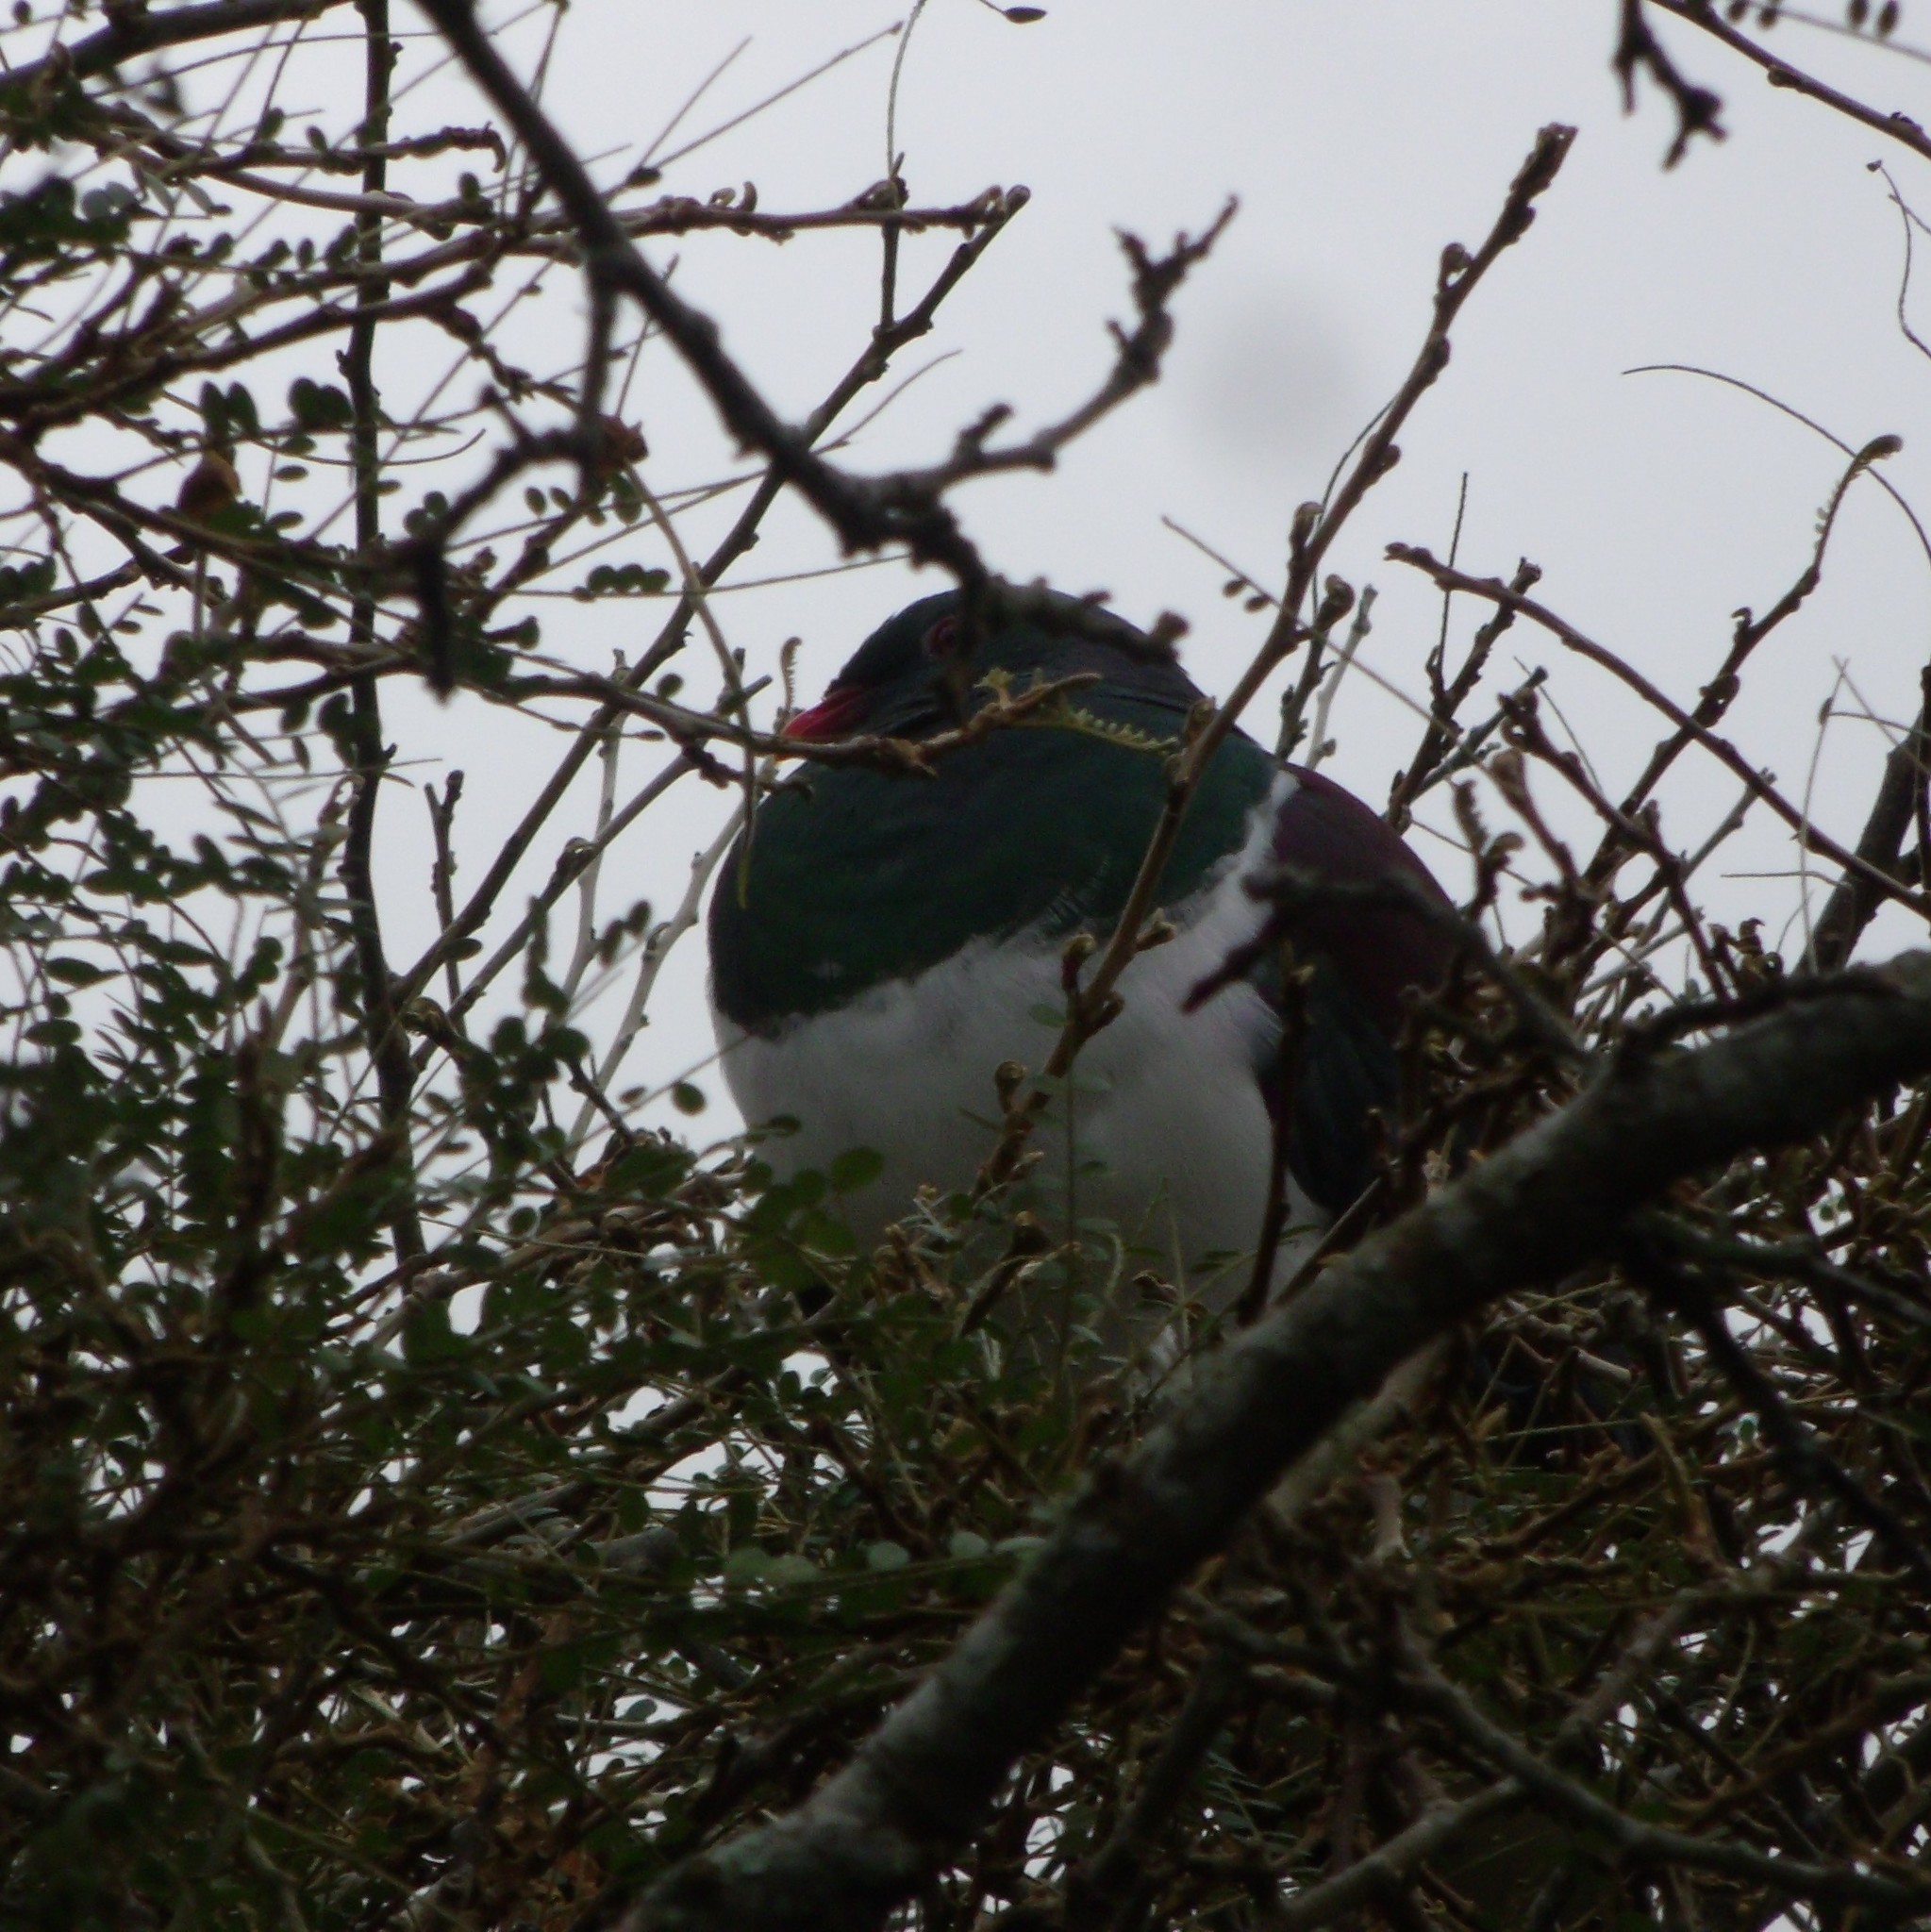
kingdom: Animalia
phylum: Chordata
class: Aves
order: Columbiformes
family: Columbidae
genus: Hemiphaga
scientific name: Hemiphaga novaeseelandiae
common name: New zealand pigeon
